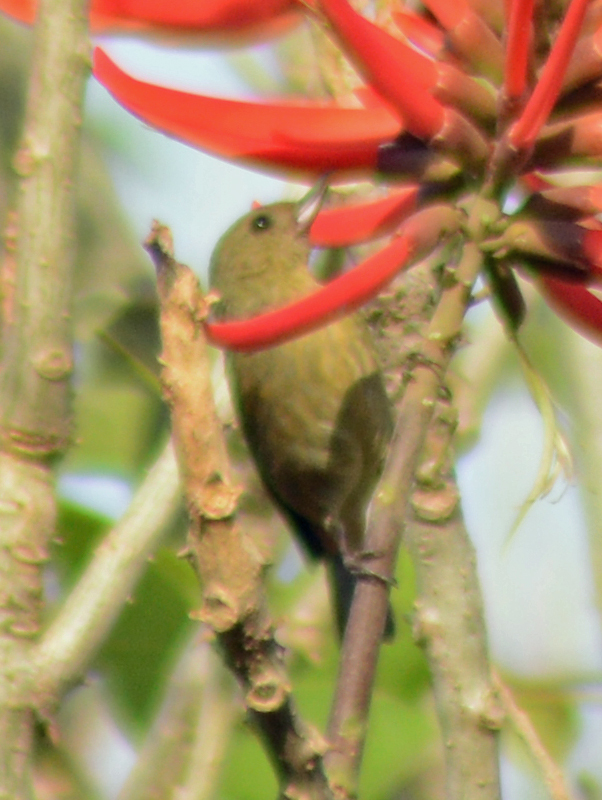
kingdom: Animalia
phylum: Chordata
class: Aves
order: Passeriformes
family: Thraupidae
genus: Diglossa
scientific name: Diglossa baritula
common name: Cinnamon-bellied flowerpiercer
